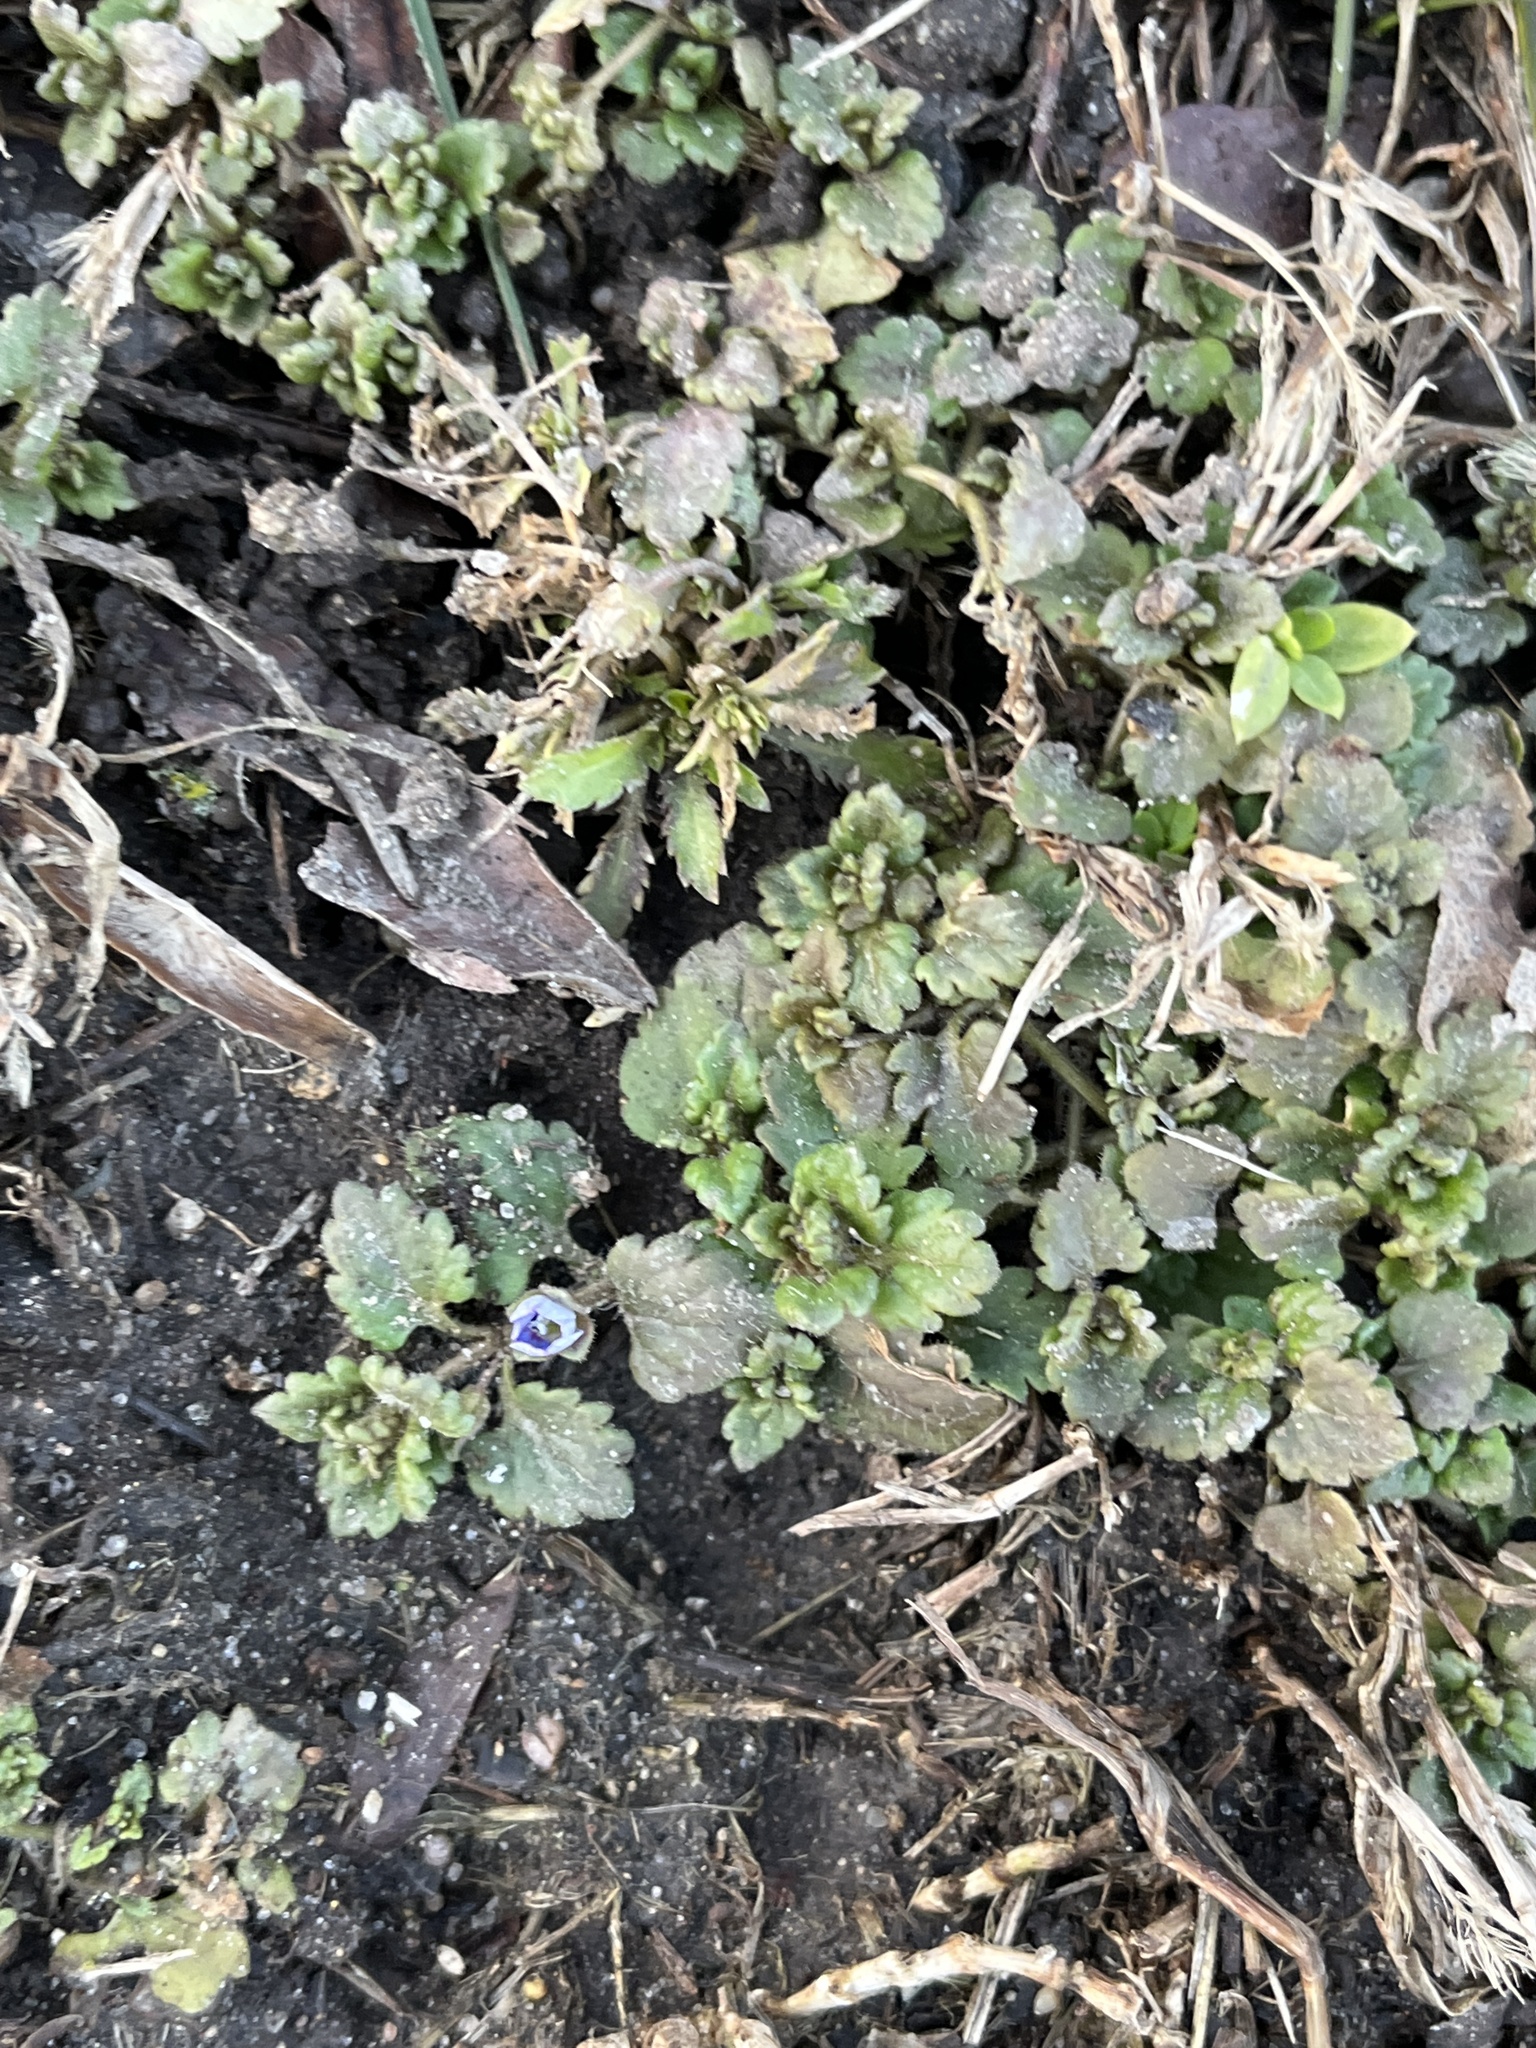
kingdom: Plantae
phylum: Tracheophyta
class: Magnoliopsida
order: Lamiales
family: Plantaginaceae
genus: Veronica
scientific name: Veronica persica
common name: Common field-speedwell
